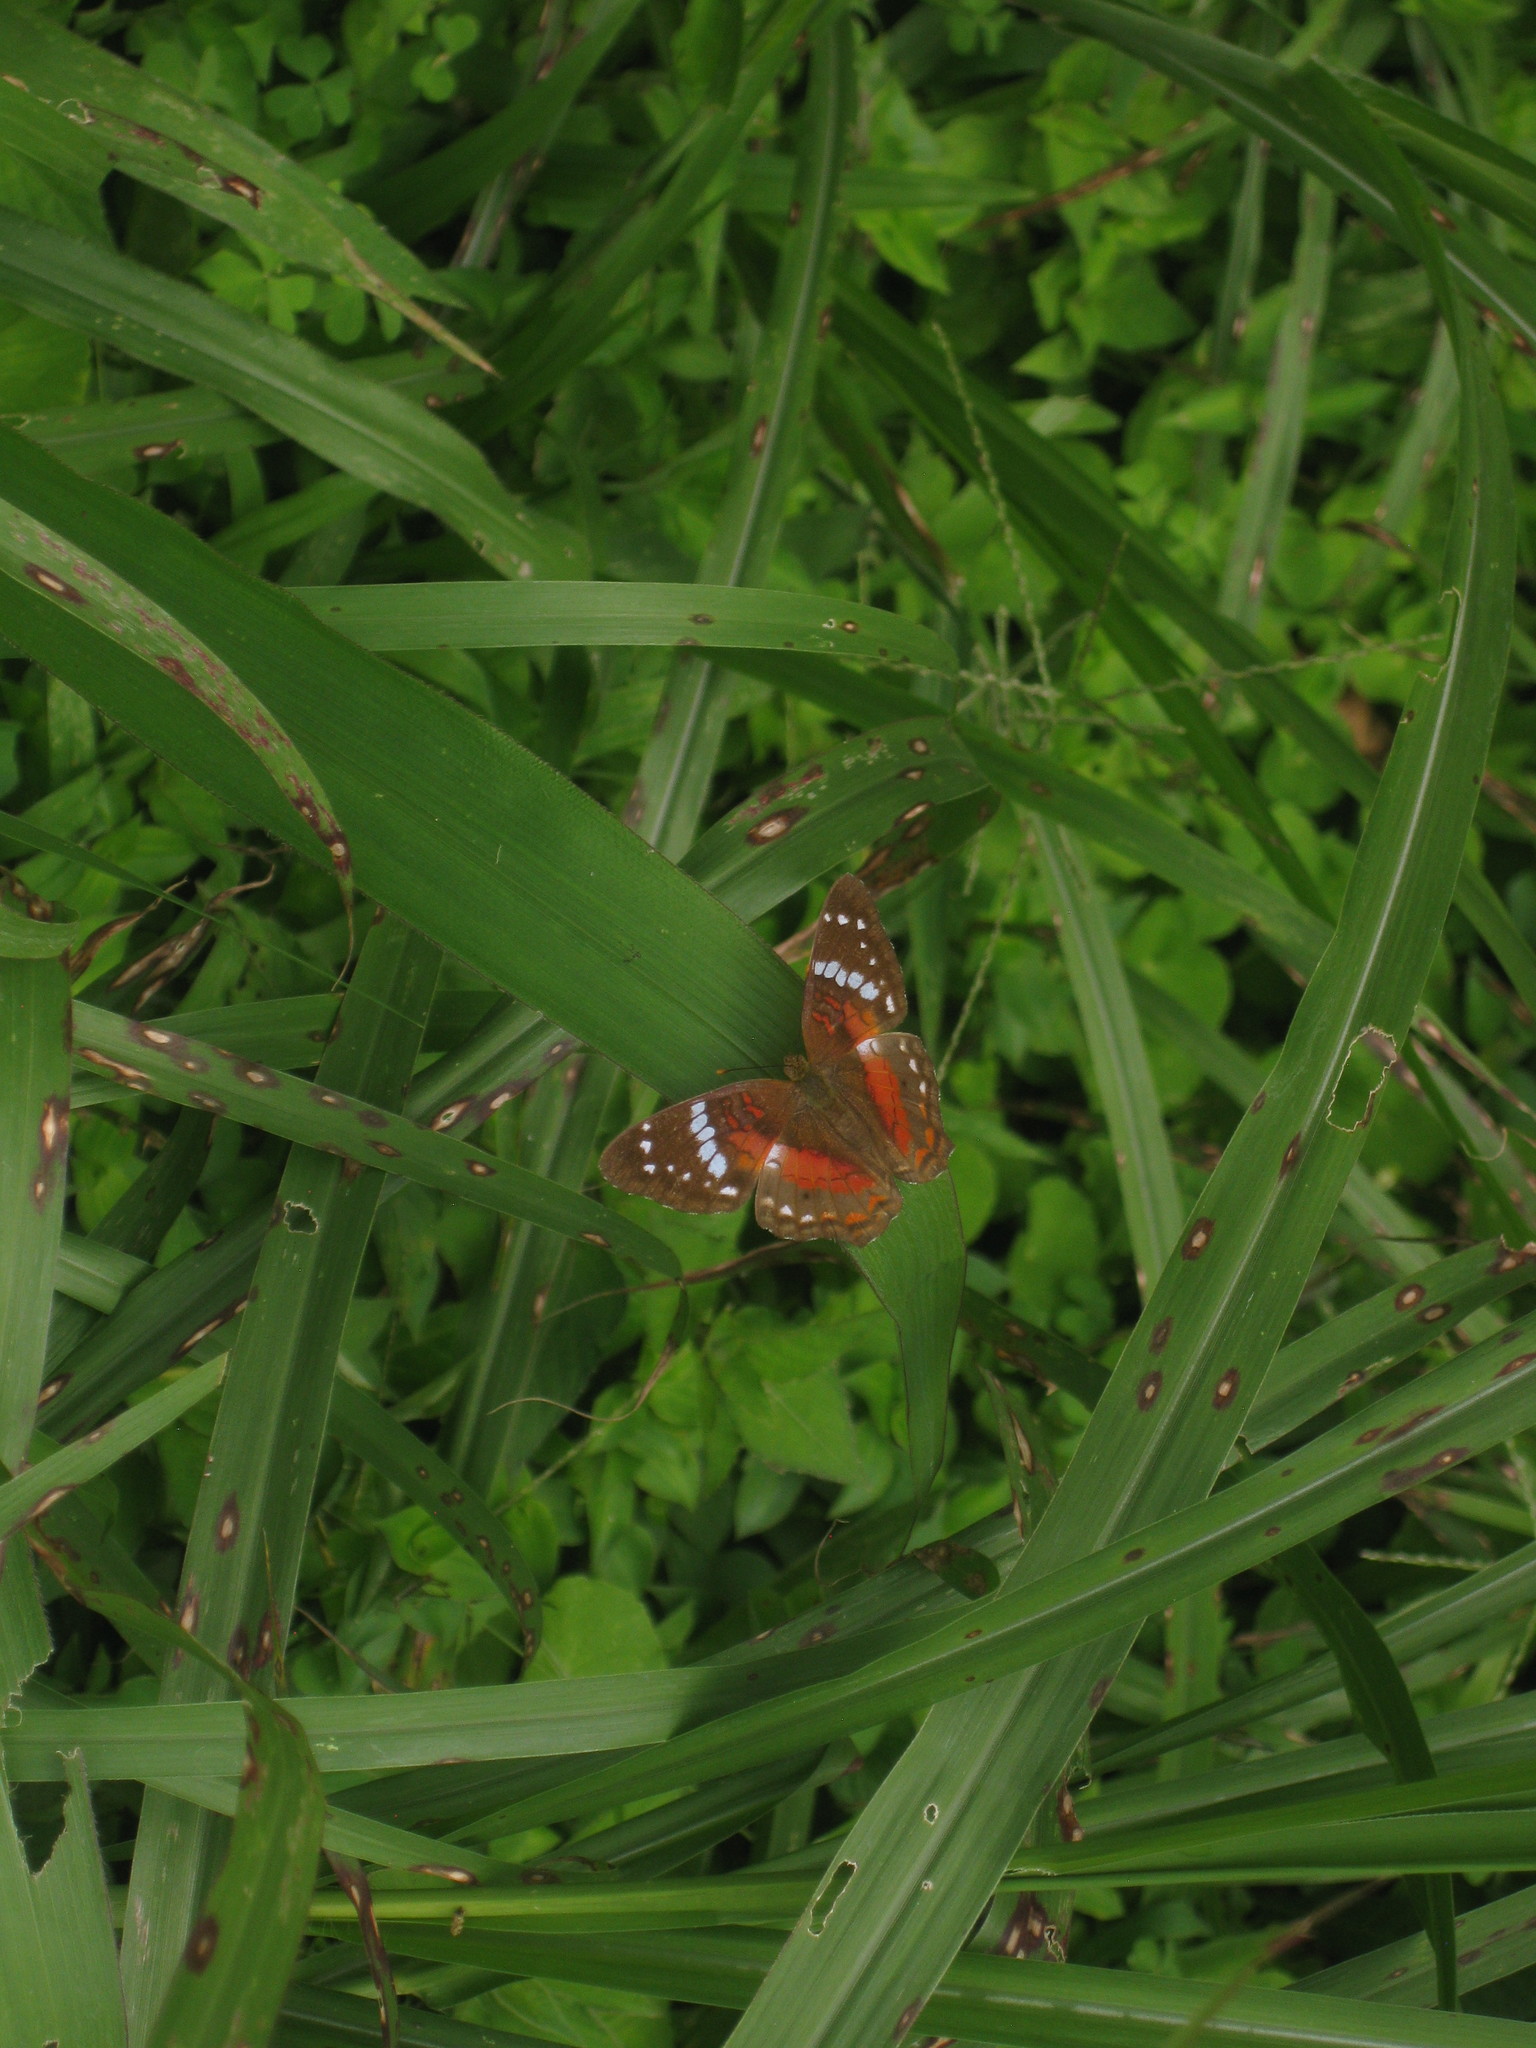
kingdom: Animalia
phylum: Arthropoda
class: Insecta
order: Lepidoptera
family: Nymphalidae
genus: Anartia
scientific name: Anartia amathea
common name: Red peacock
